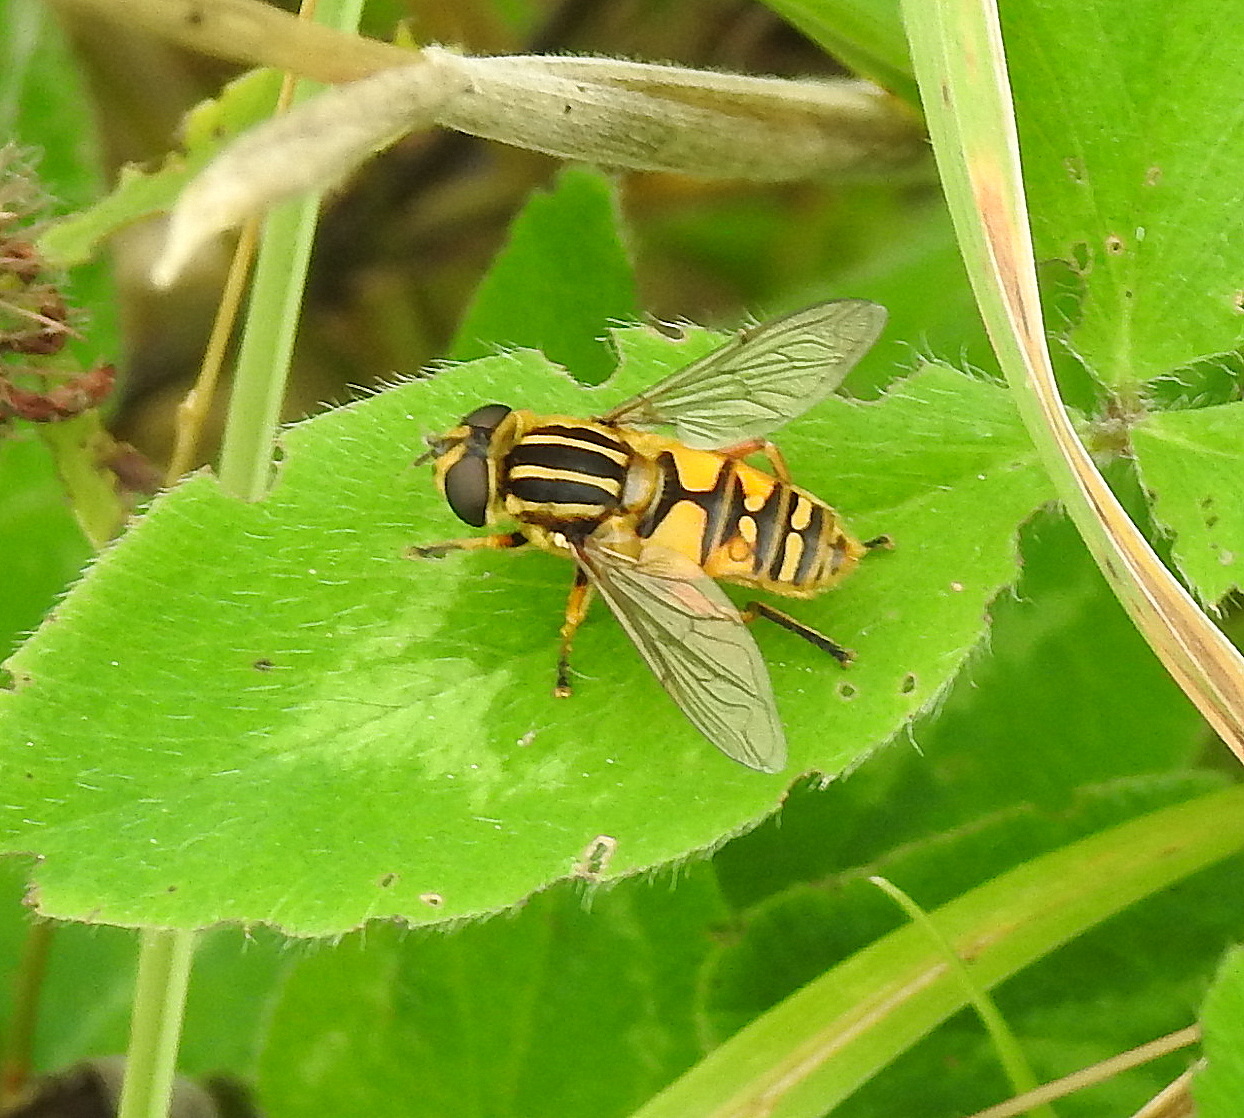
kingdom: Animalia
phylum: Arthropoda
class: Insecta
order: Diptera
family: Syrphidae
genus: Helophilus
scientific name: Helophilus pendulus
